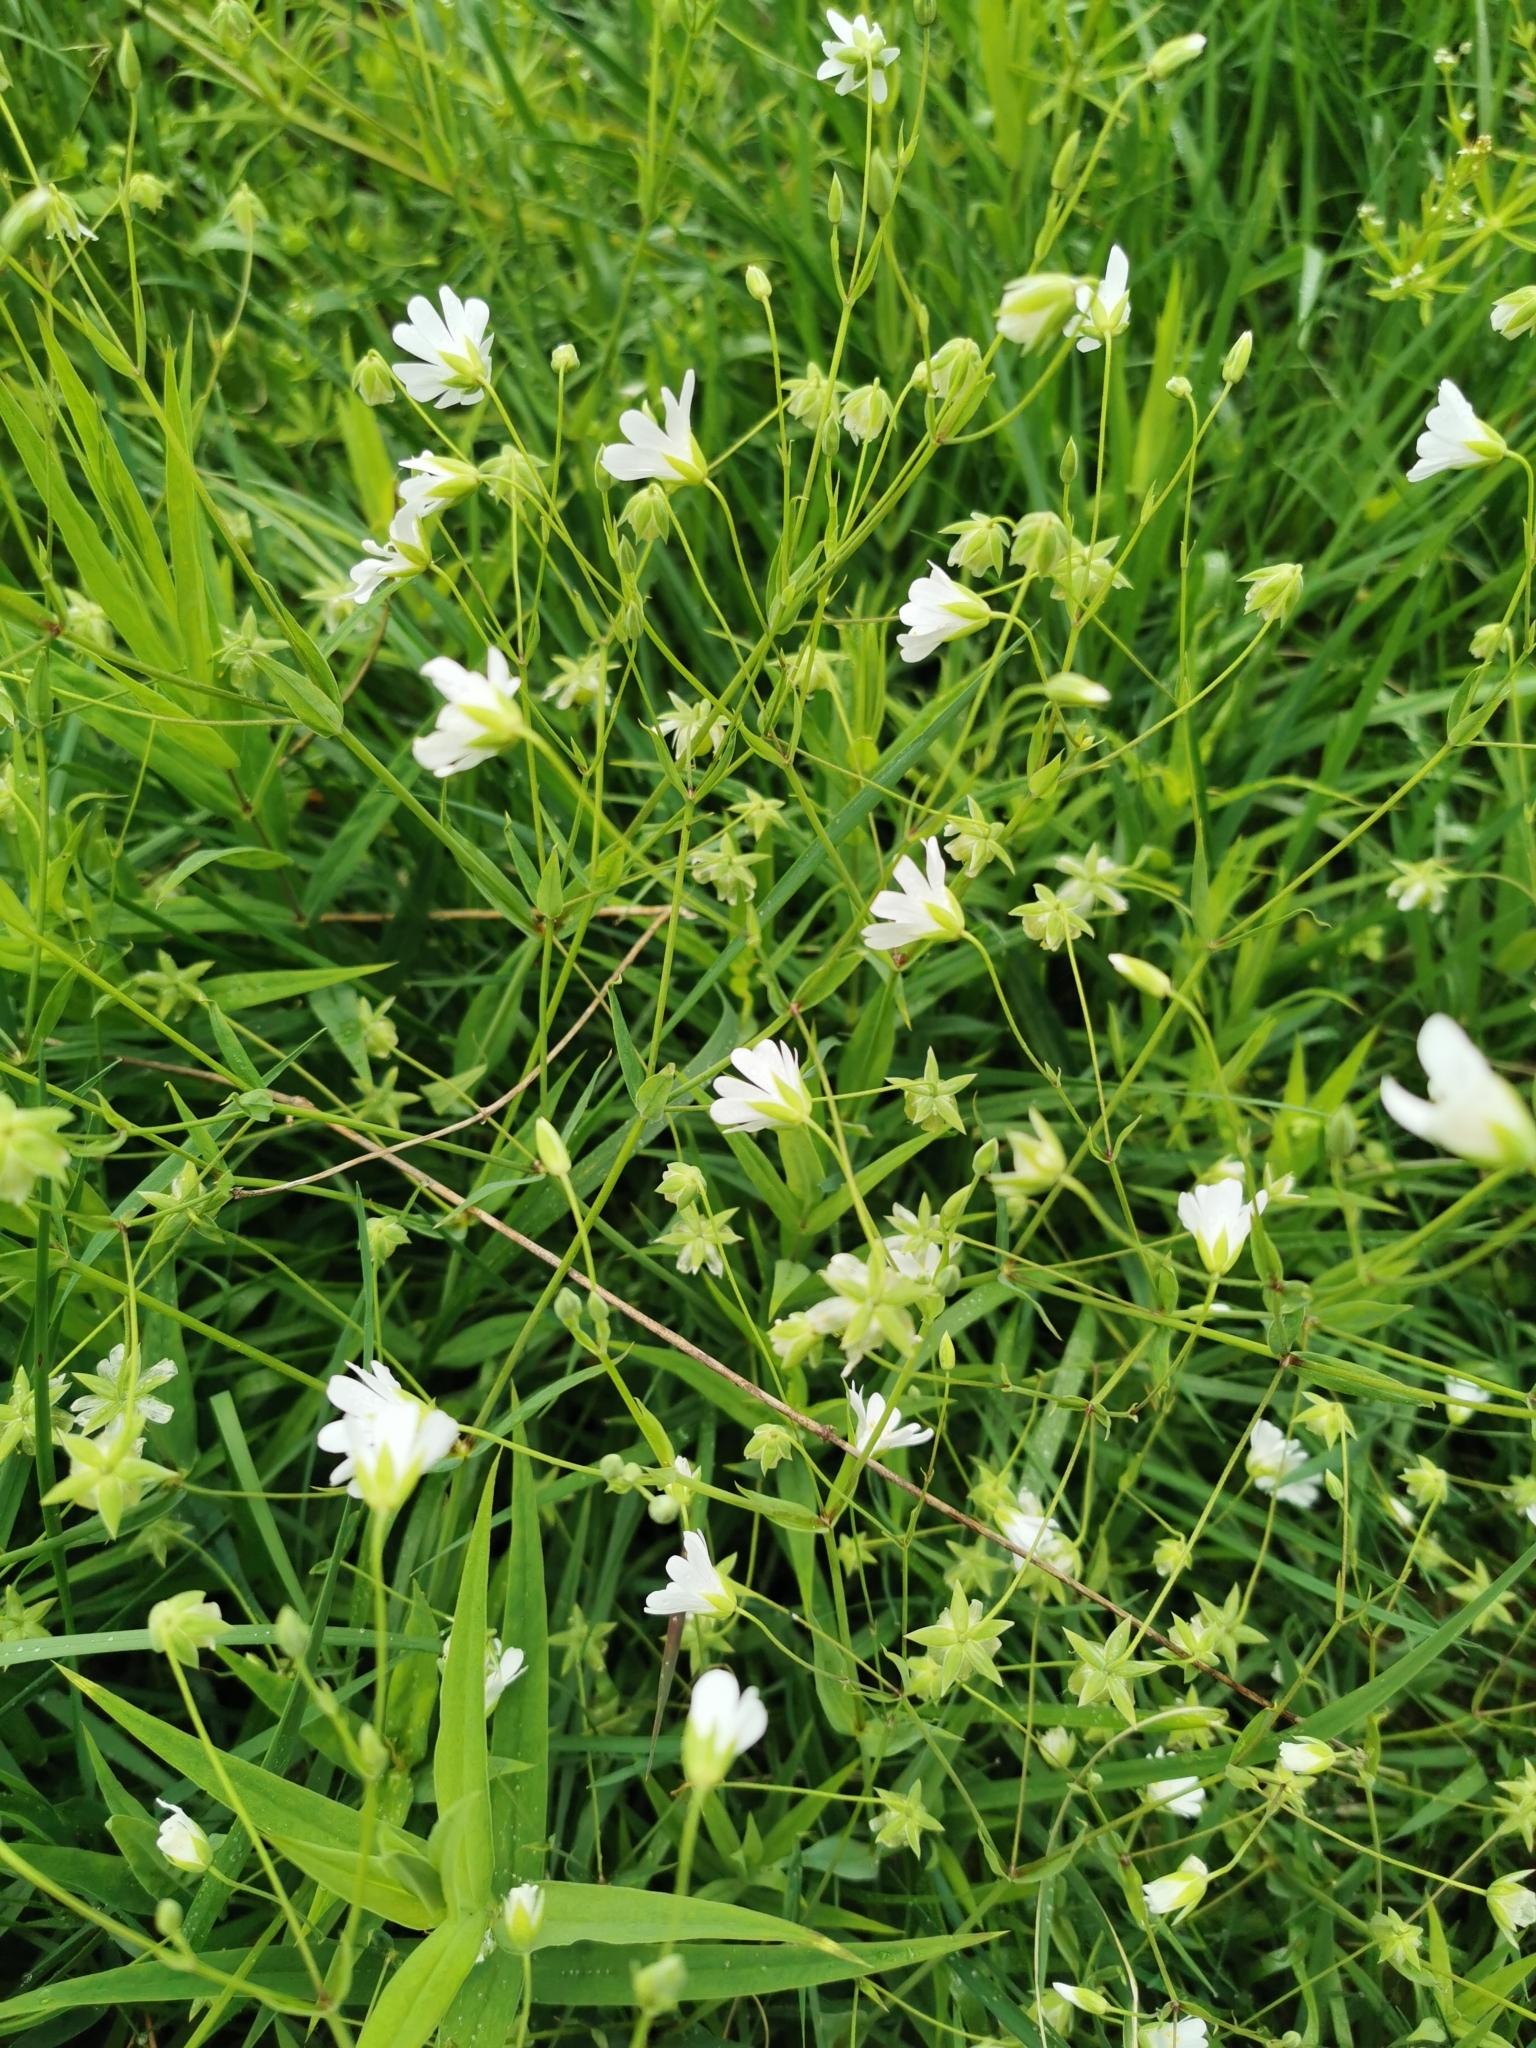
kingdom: Plantae
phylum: Tracheophyta
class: Magnoliopsida
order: Caryophyllales
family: Caryophyllaceae
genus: Rabelera
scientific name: Rabelera holostea
